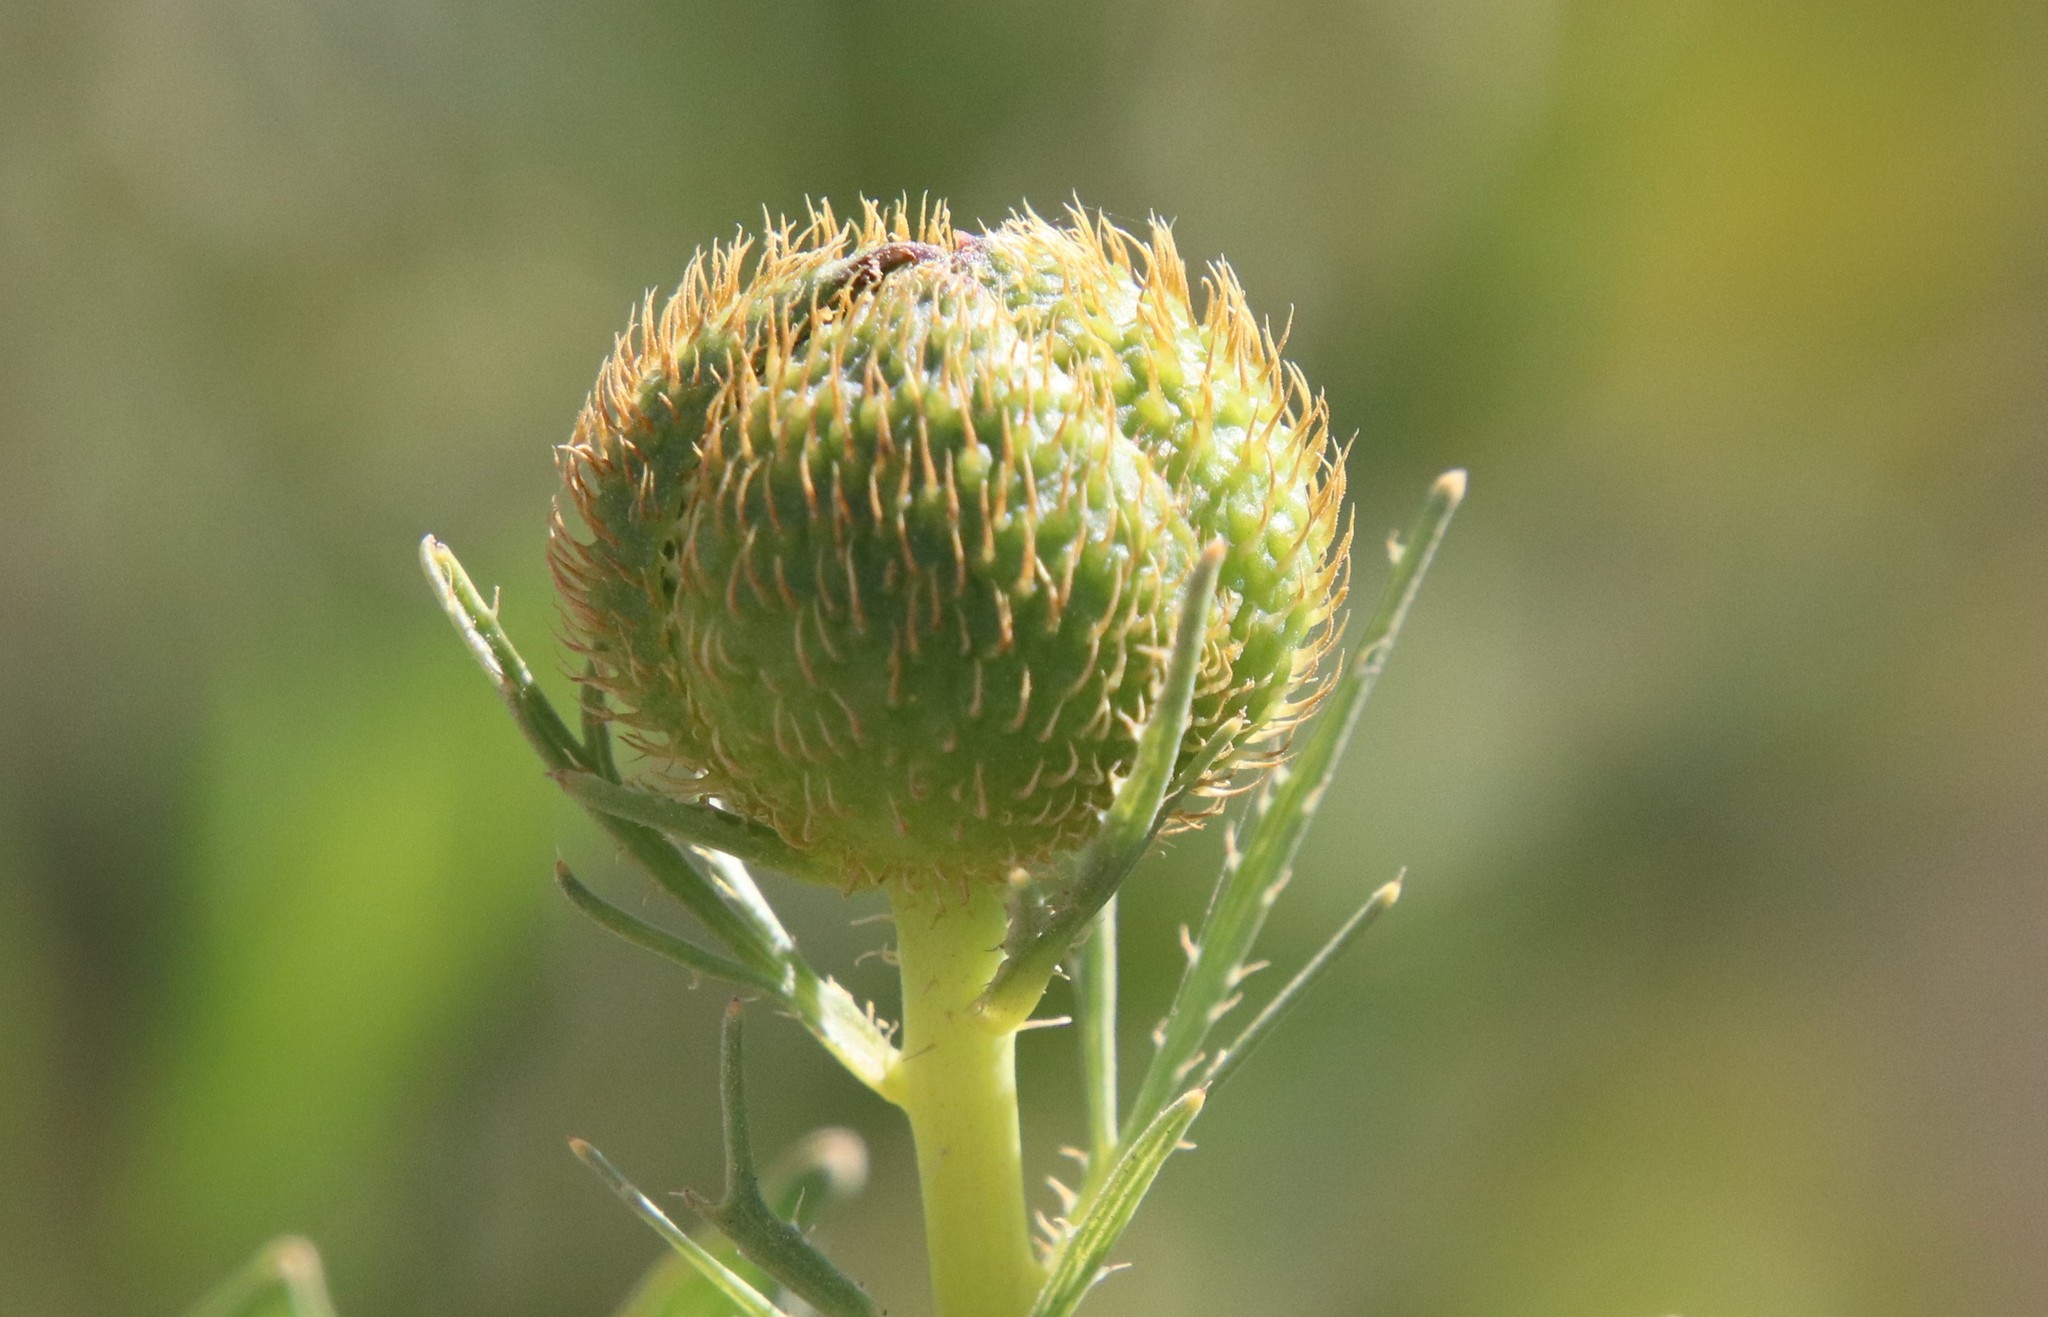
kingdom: Plantae
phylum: Tracheophyta
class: Magnoliopsida
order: Ranunculales
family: Papaveraceae
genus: Romneya
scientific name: Romneya trichocalyx
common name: Hairy matilija-poppy
